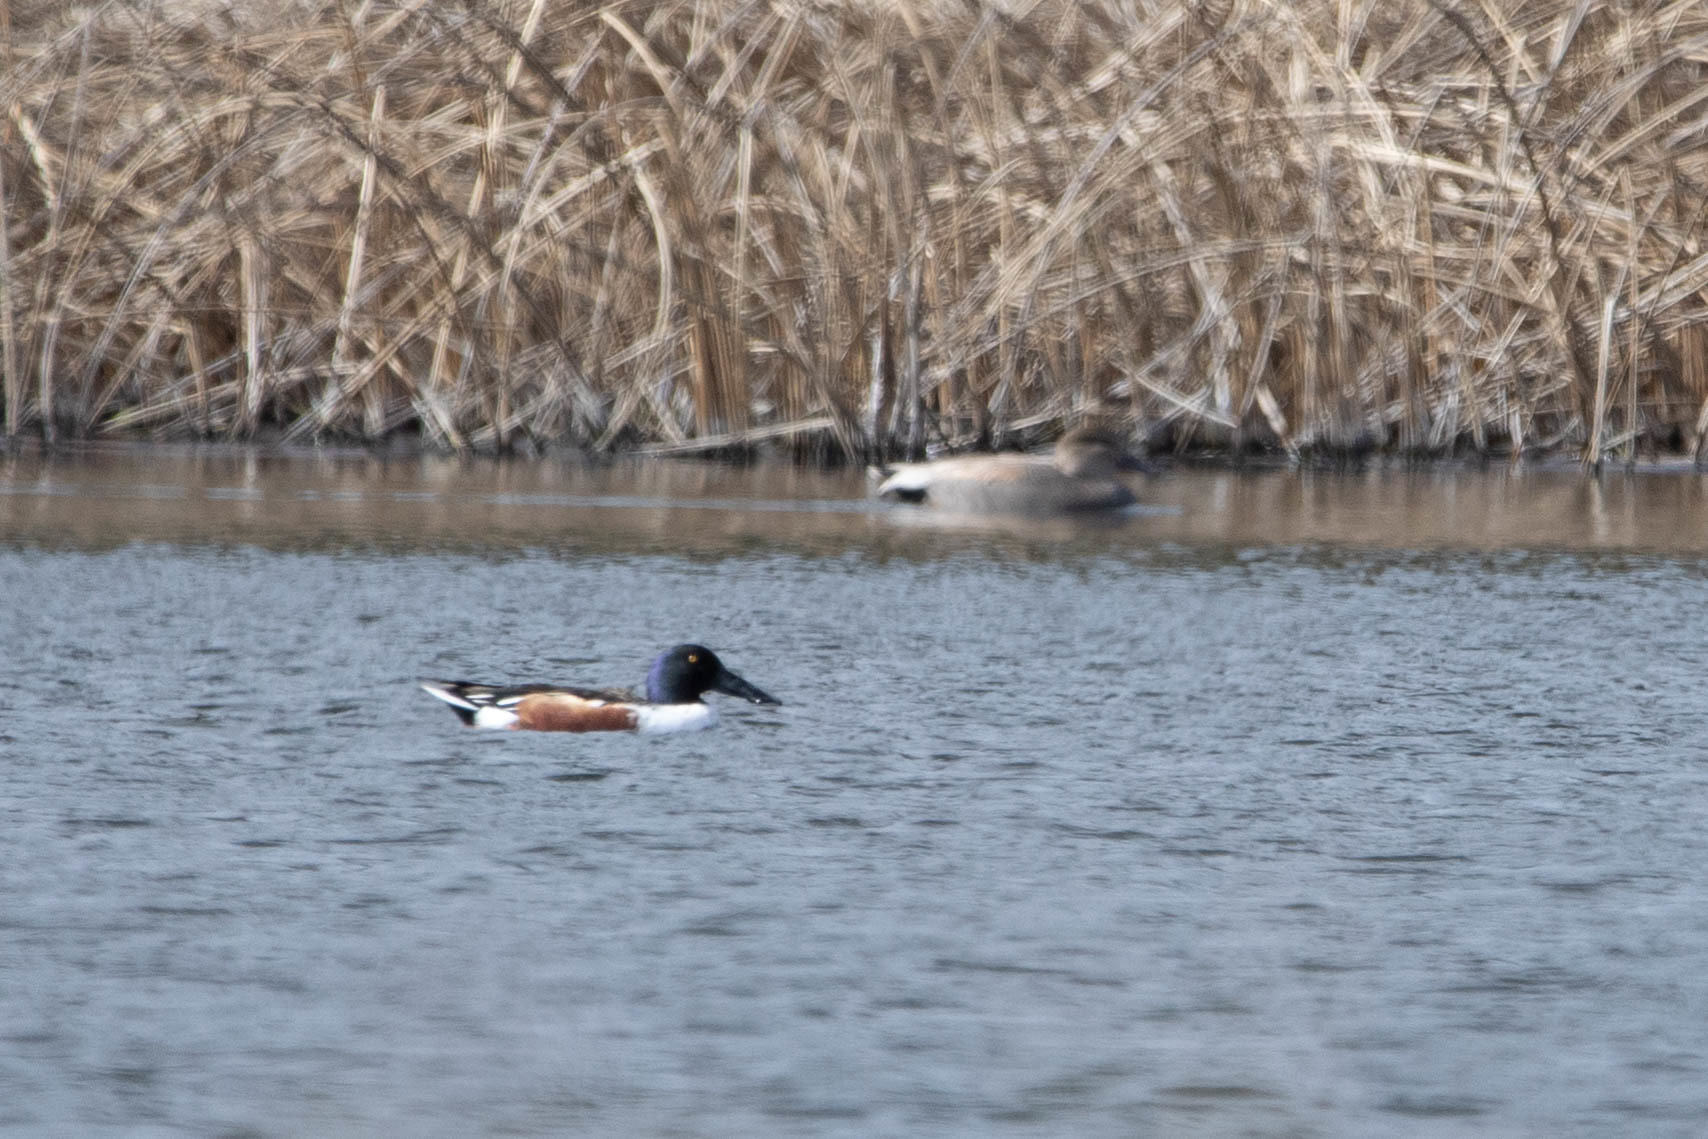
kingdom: Animalia
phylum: Chordata
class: Aves
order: Anseriformes
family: Anatidae
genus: Spatula
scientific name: Spatula clypeata
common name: Northern shoveler
